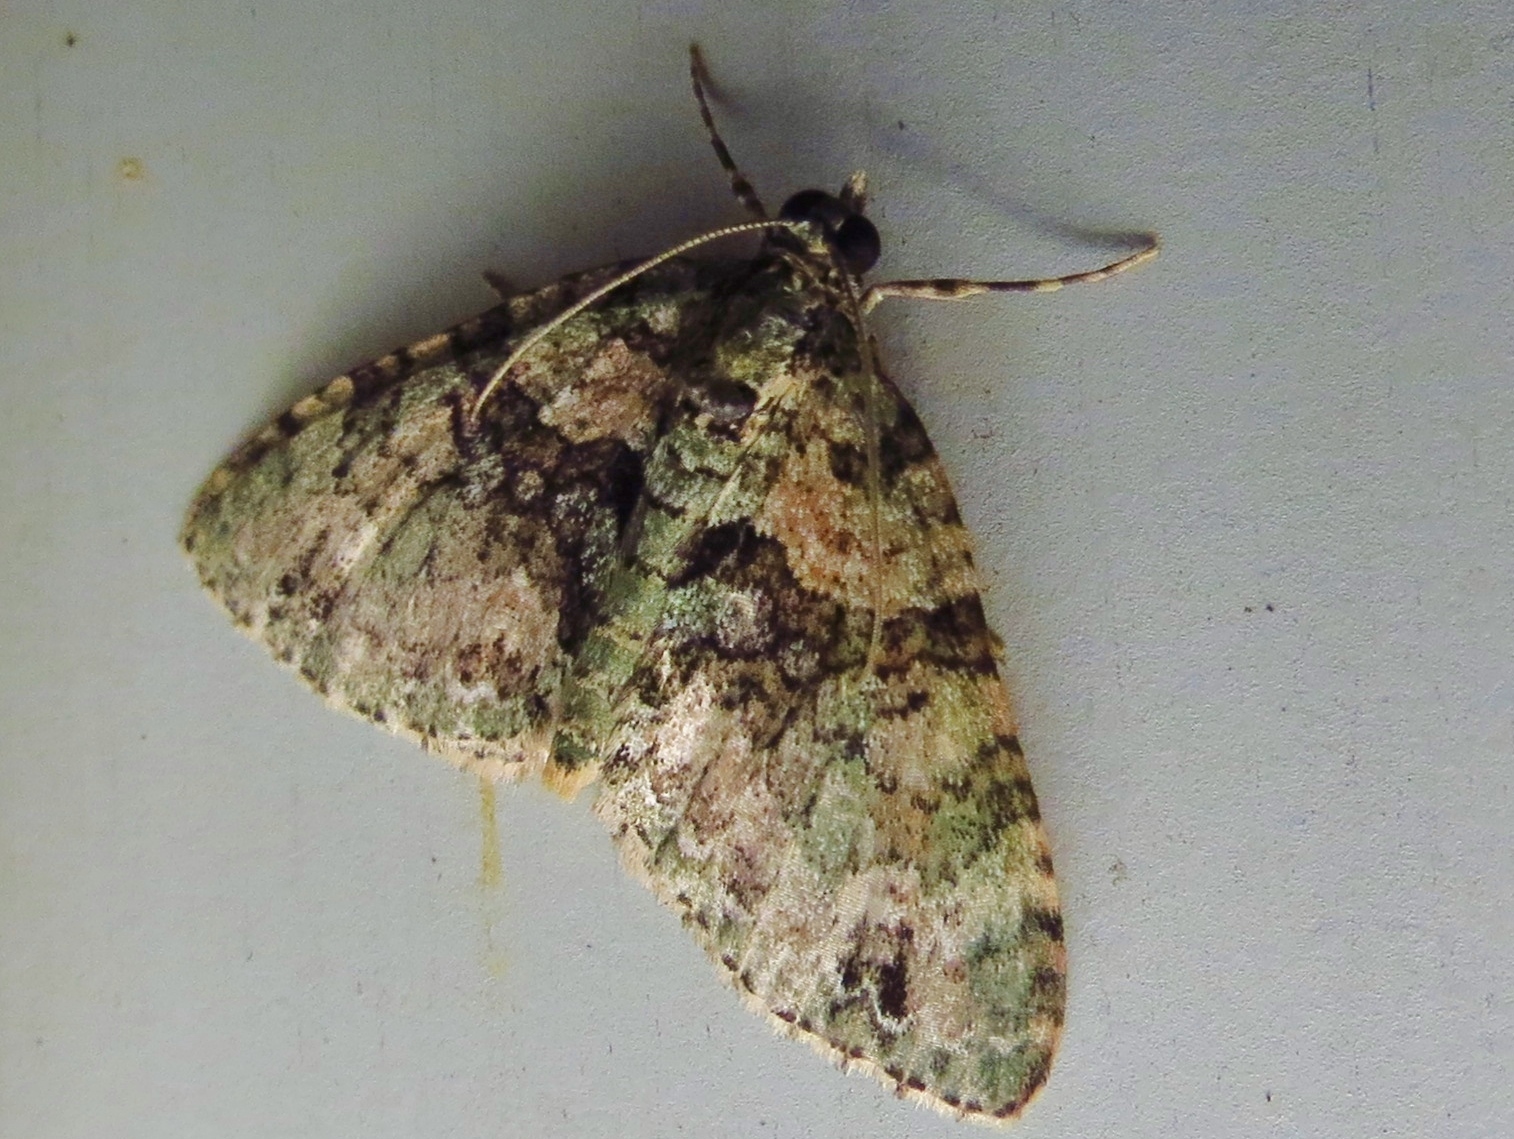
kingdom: Animalia
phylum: Arthropoda
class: Insecta
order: Lepidoptera
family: Geometridae
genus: Hammaptera
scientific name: Hammaptera parinotata
